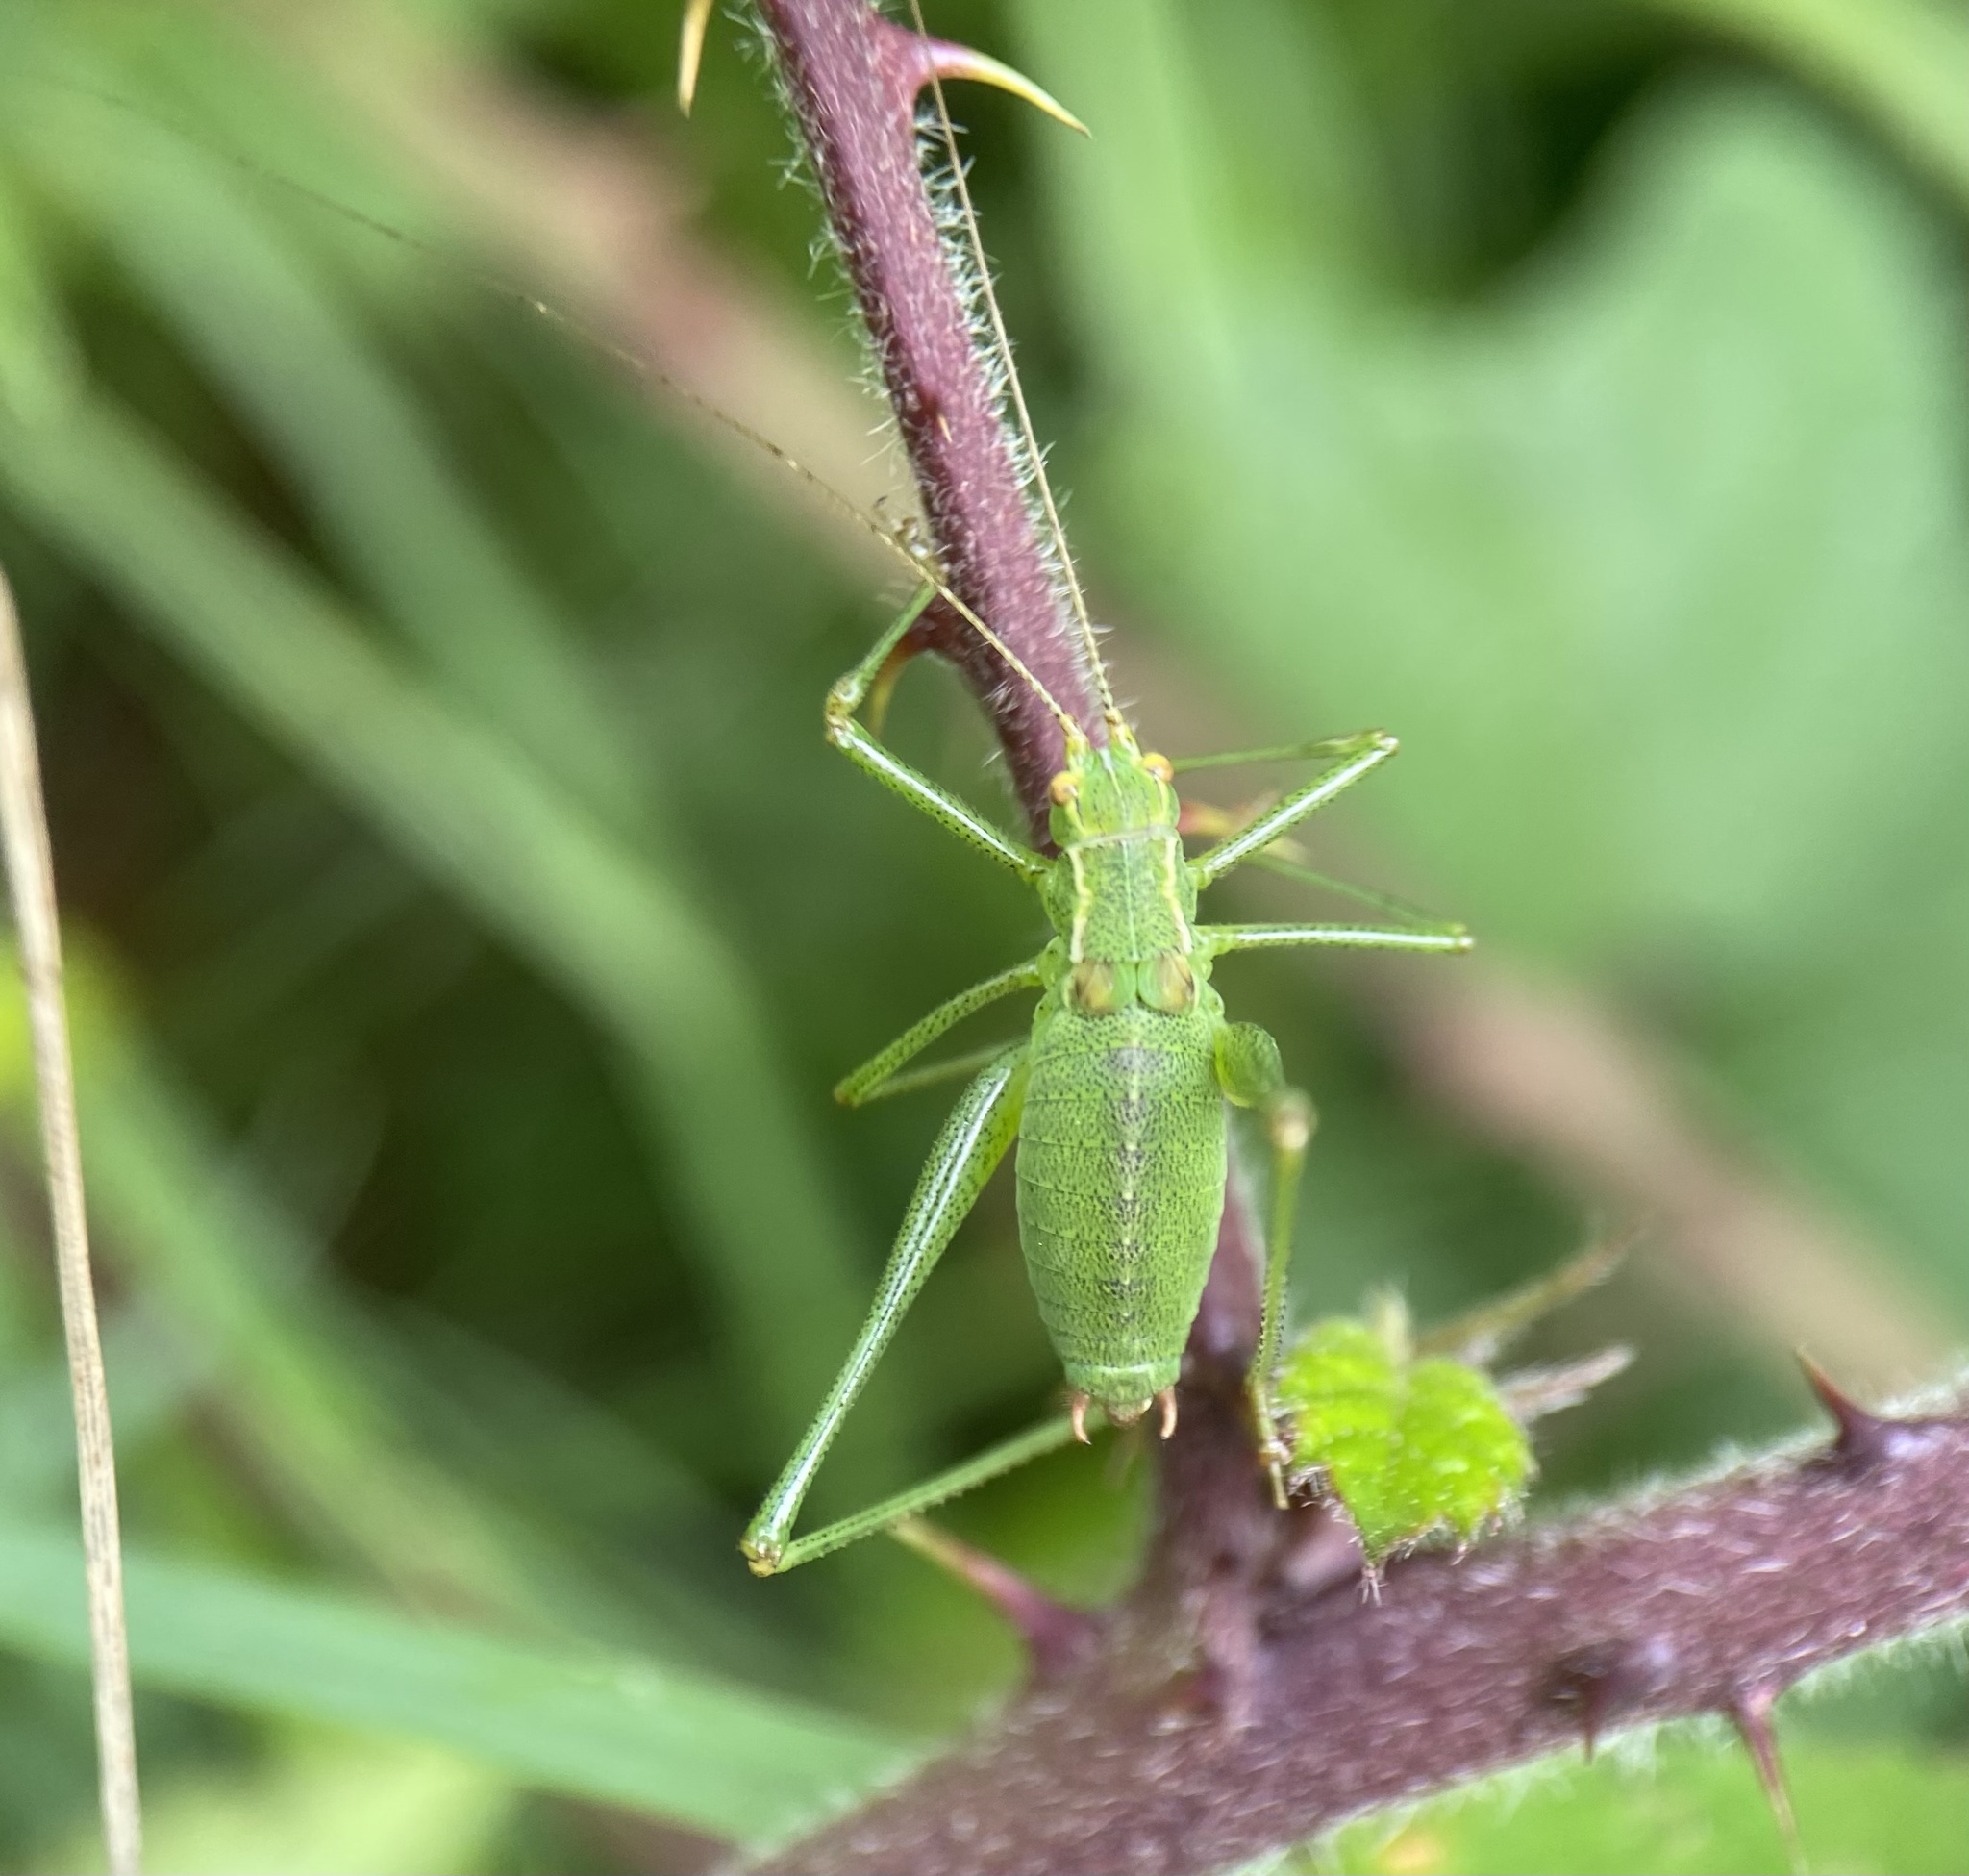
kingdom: Animalia
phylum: Arthropoda
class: Insecta
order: Orthoptera
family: Tettigoniidae
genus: Leptophyes
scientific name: Leptophyes punctatissima
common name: Speckled bush-cricket
